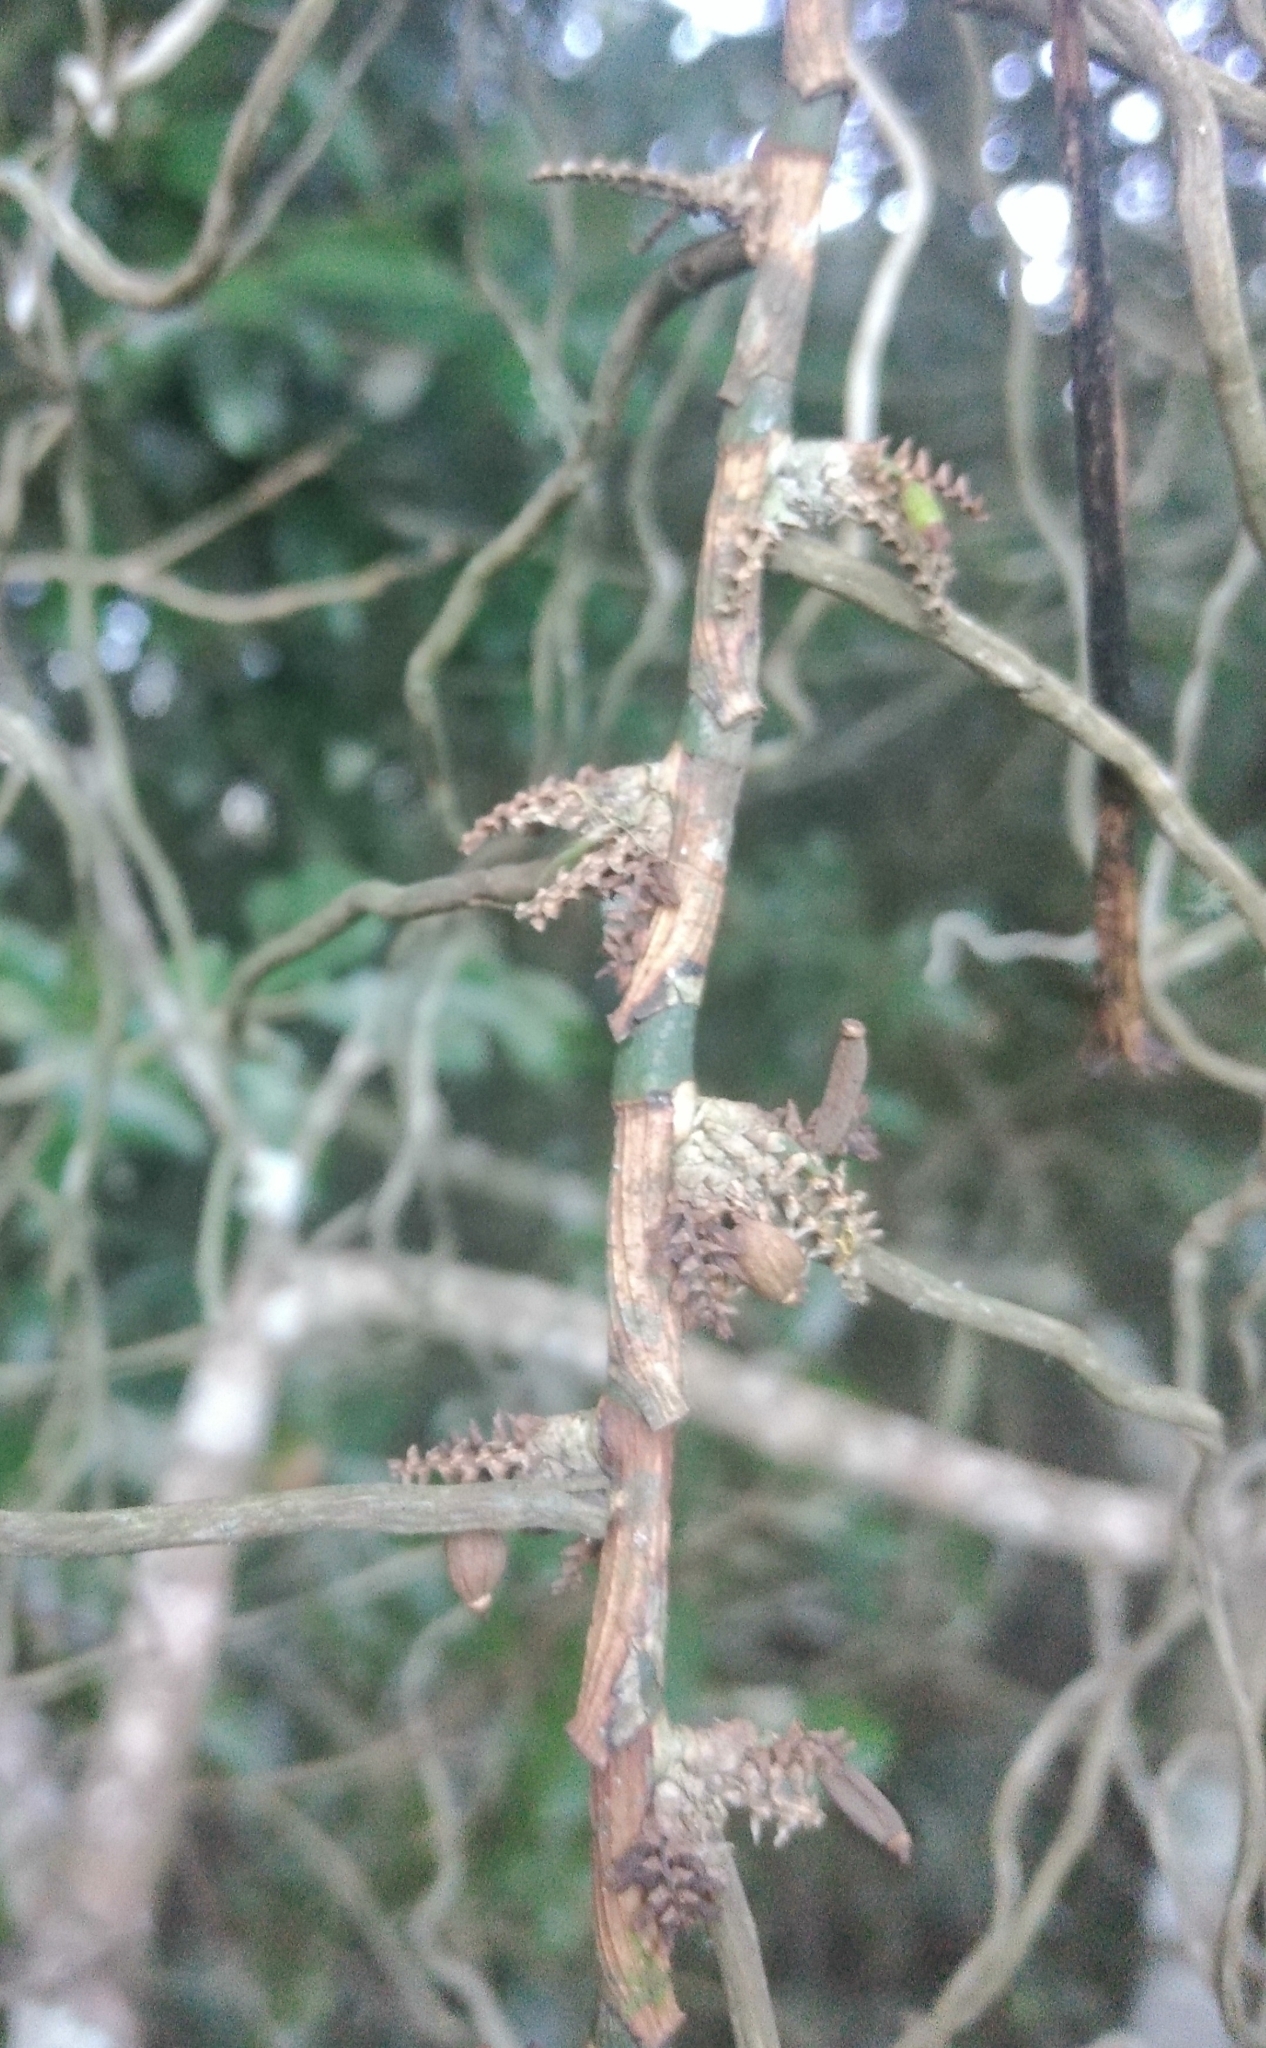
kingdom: Plantae
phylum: Tracheophyta
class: Liliopsida
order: Asparagales
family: Orchidaceae
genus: Campylocentrum
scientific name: Campylocentrum densiflorum
